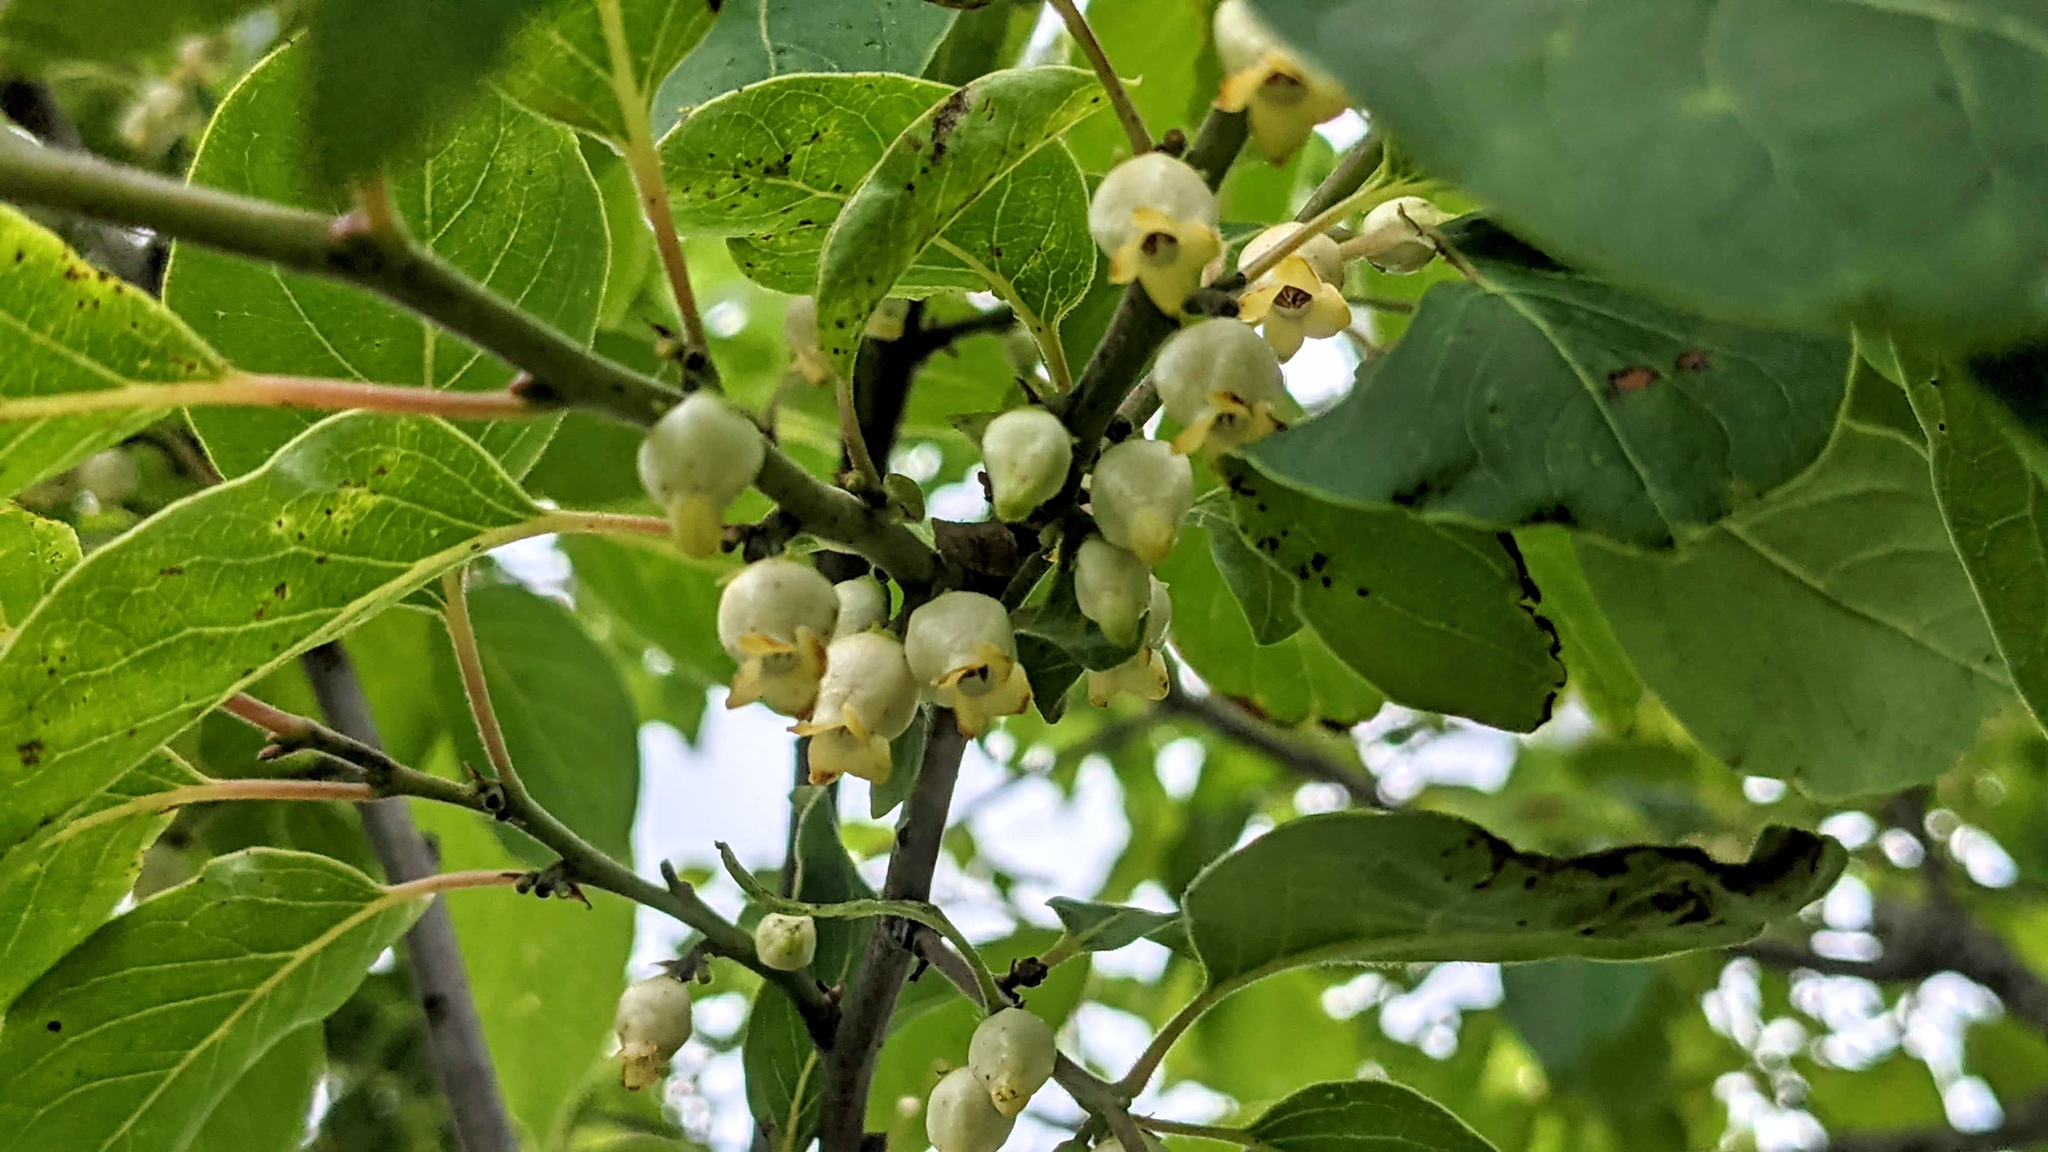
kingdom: Plantae
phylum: Tracheophyta
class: Magnoliopsida
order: Ericales
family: Ebenaceae
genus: Diospyros
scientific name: Diospyros virginiana
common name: Persimmon
